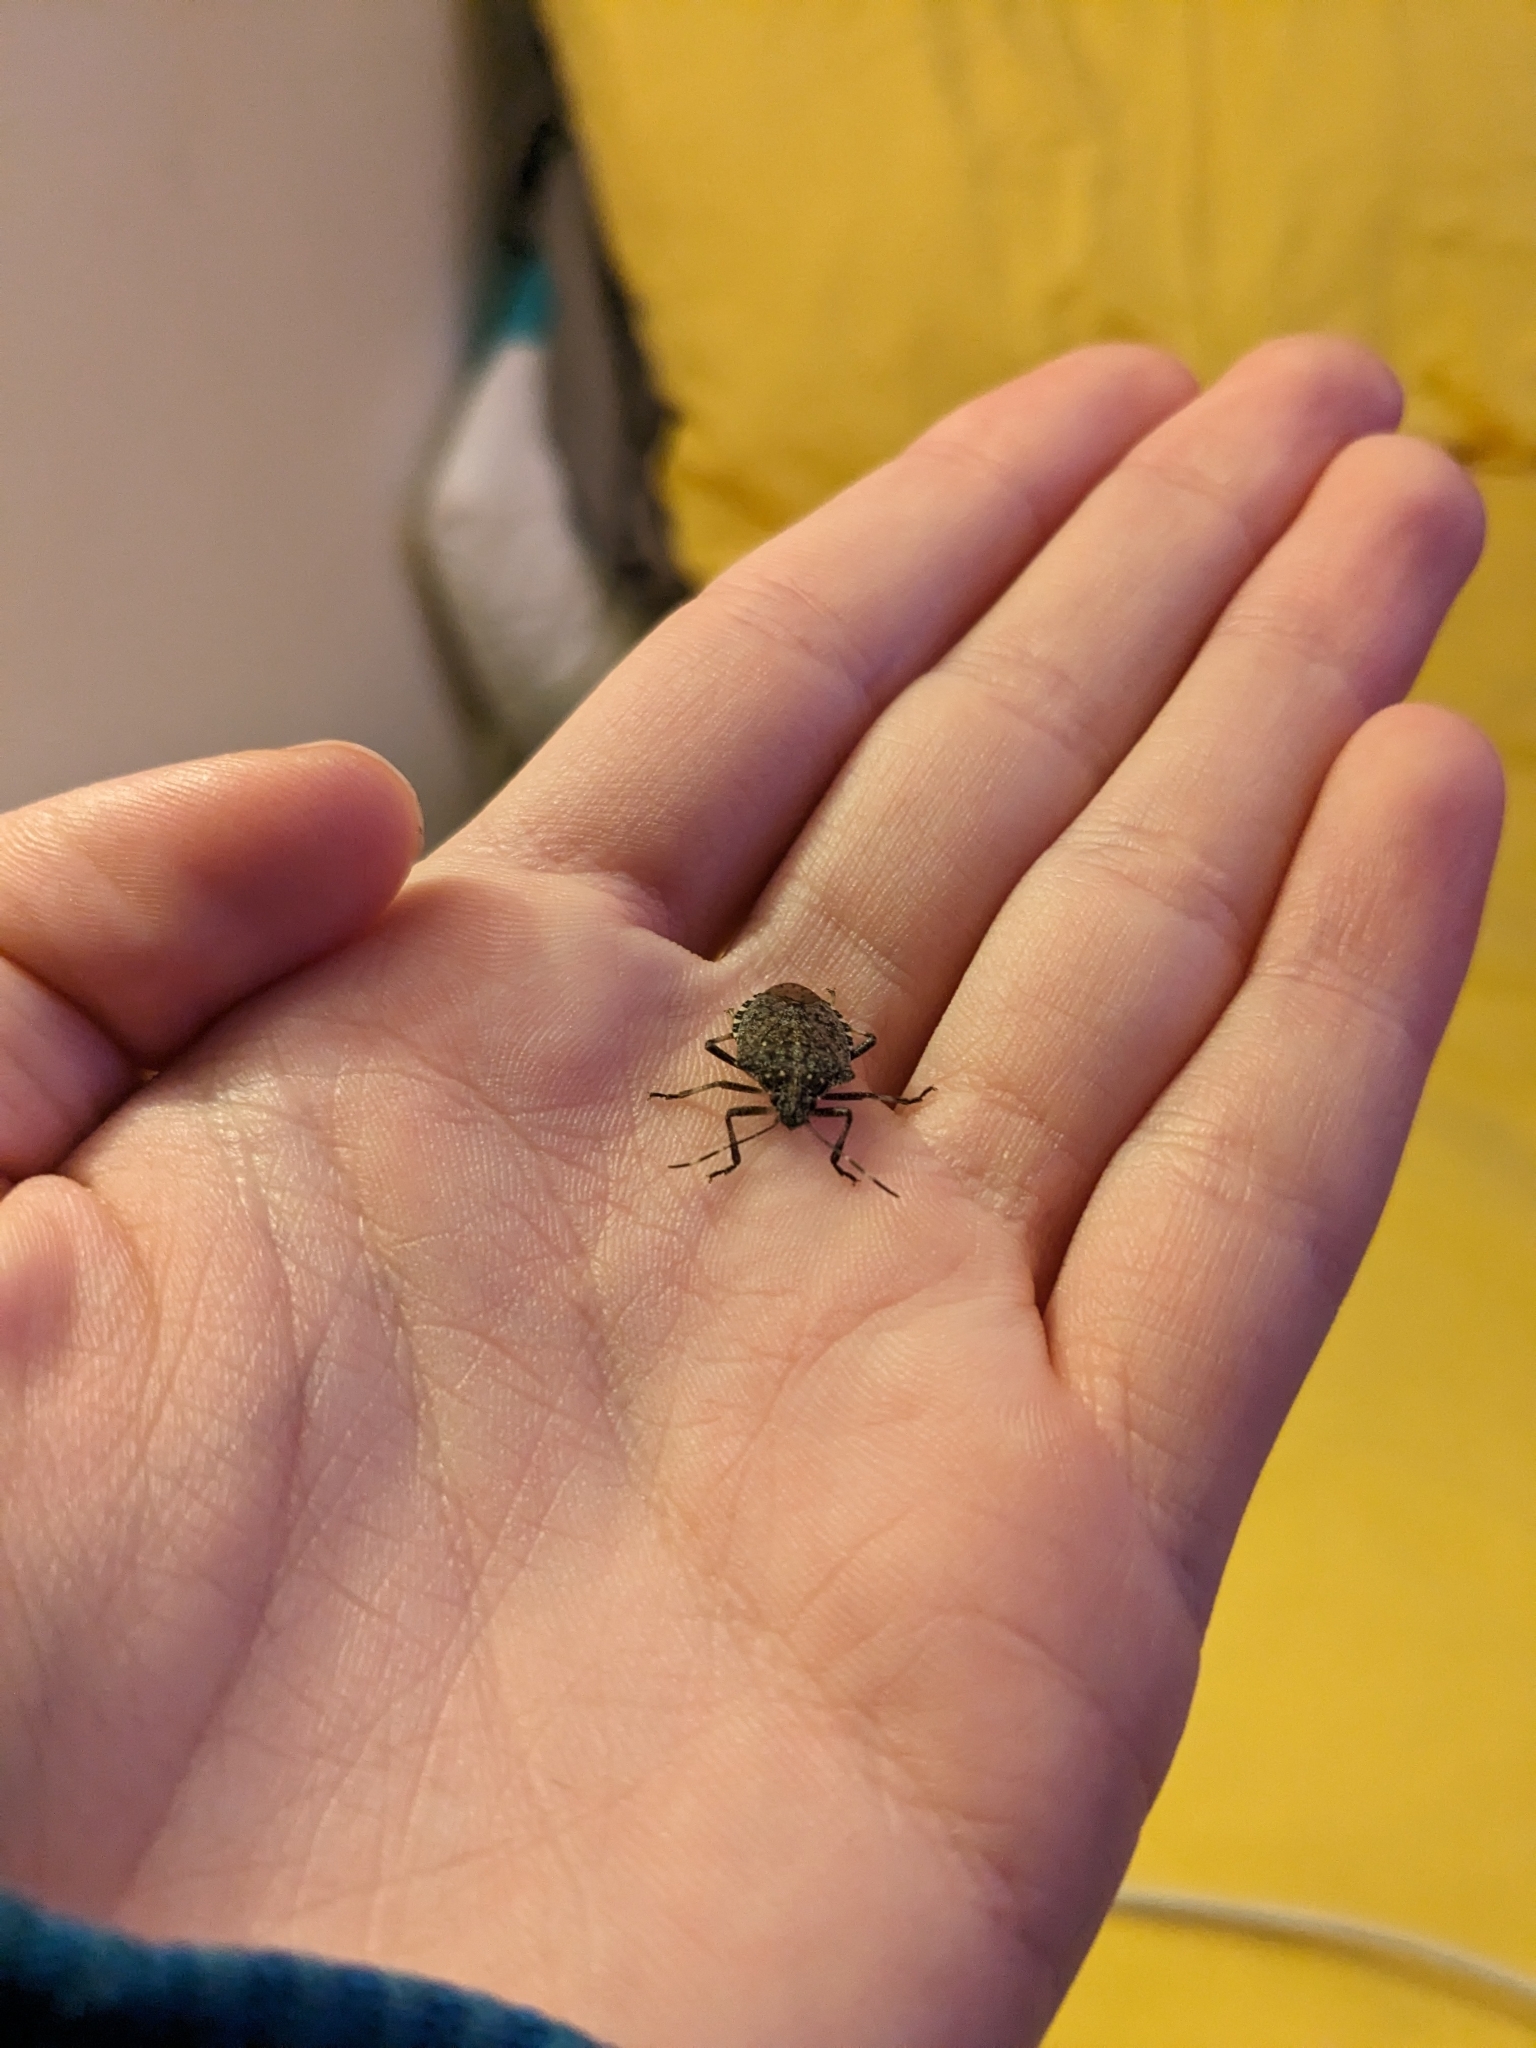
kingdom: Animalia
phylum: Arthropoda
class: Insecta
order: Hemiptera
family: Pentatomidae
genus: Halyomorpha
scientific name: Halyomorpha halys
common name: Brown marmorated stink bug
